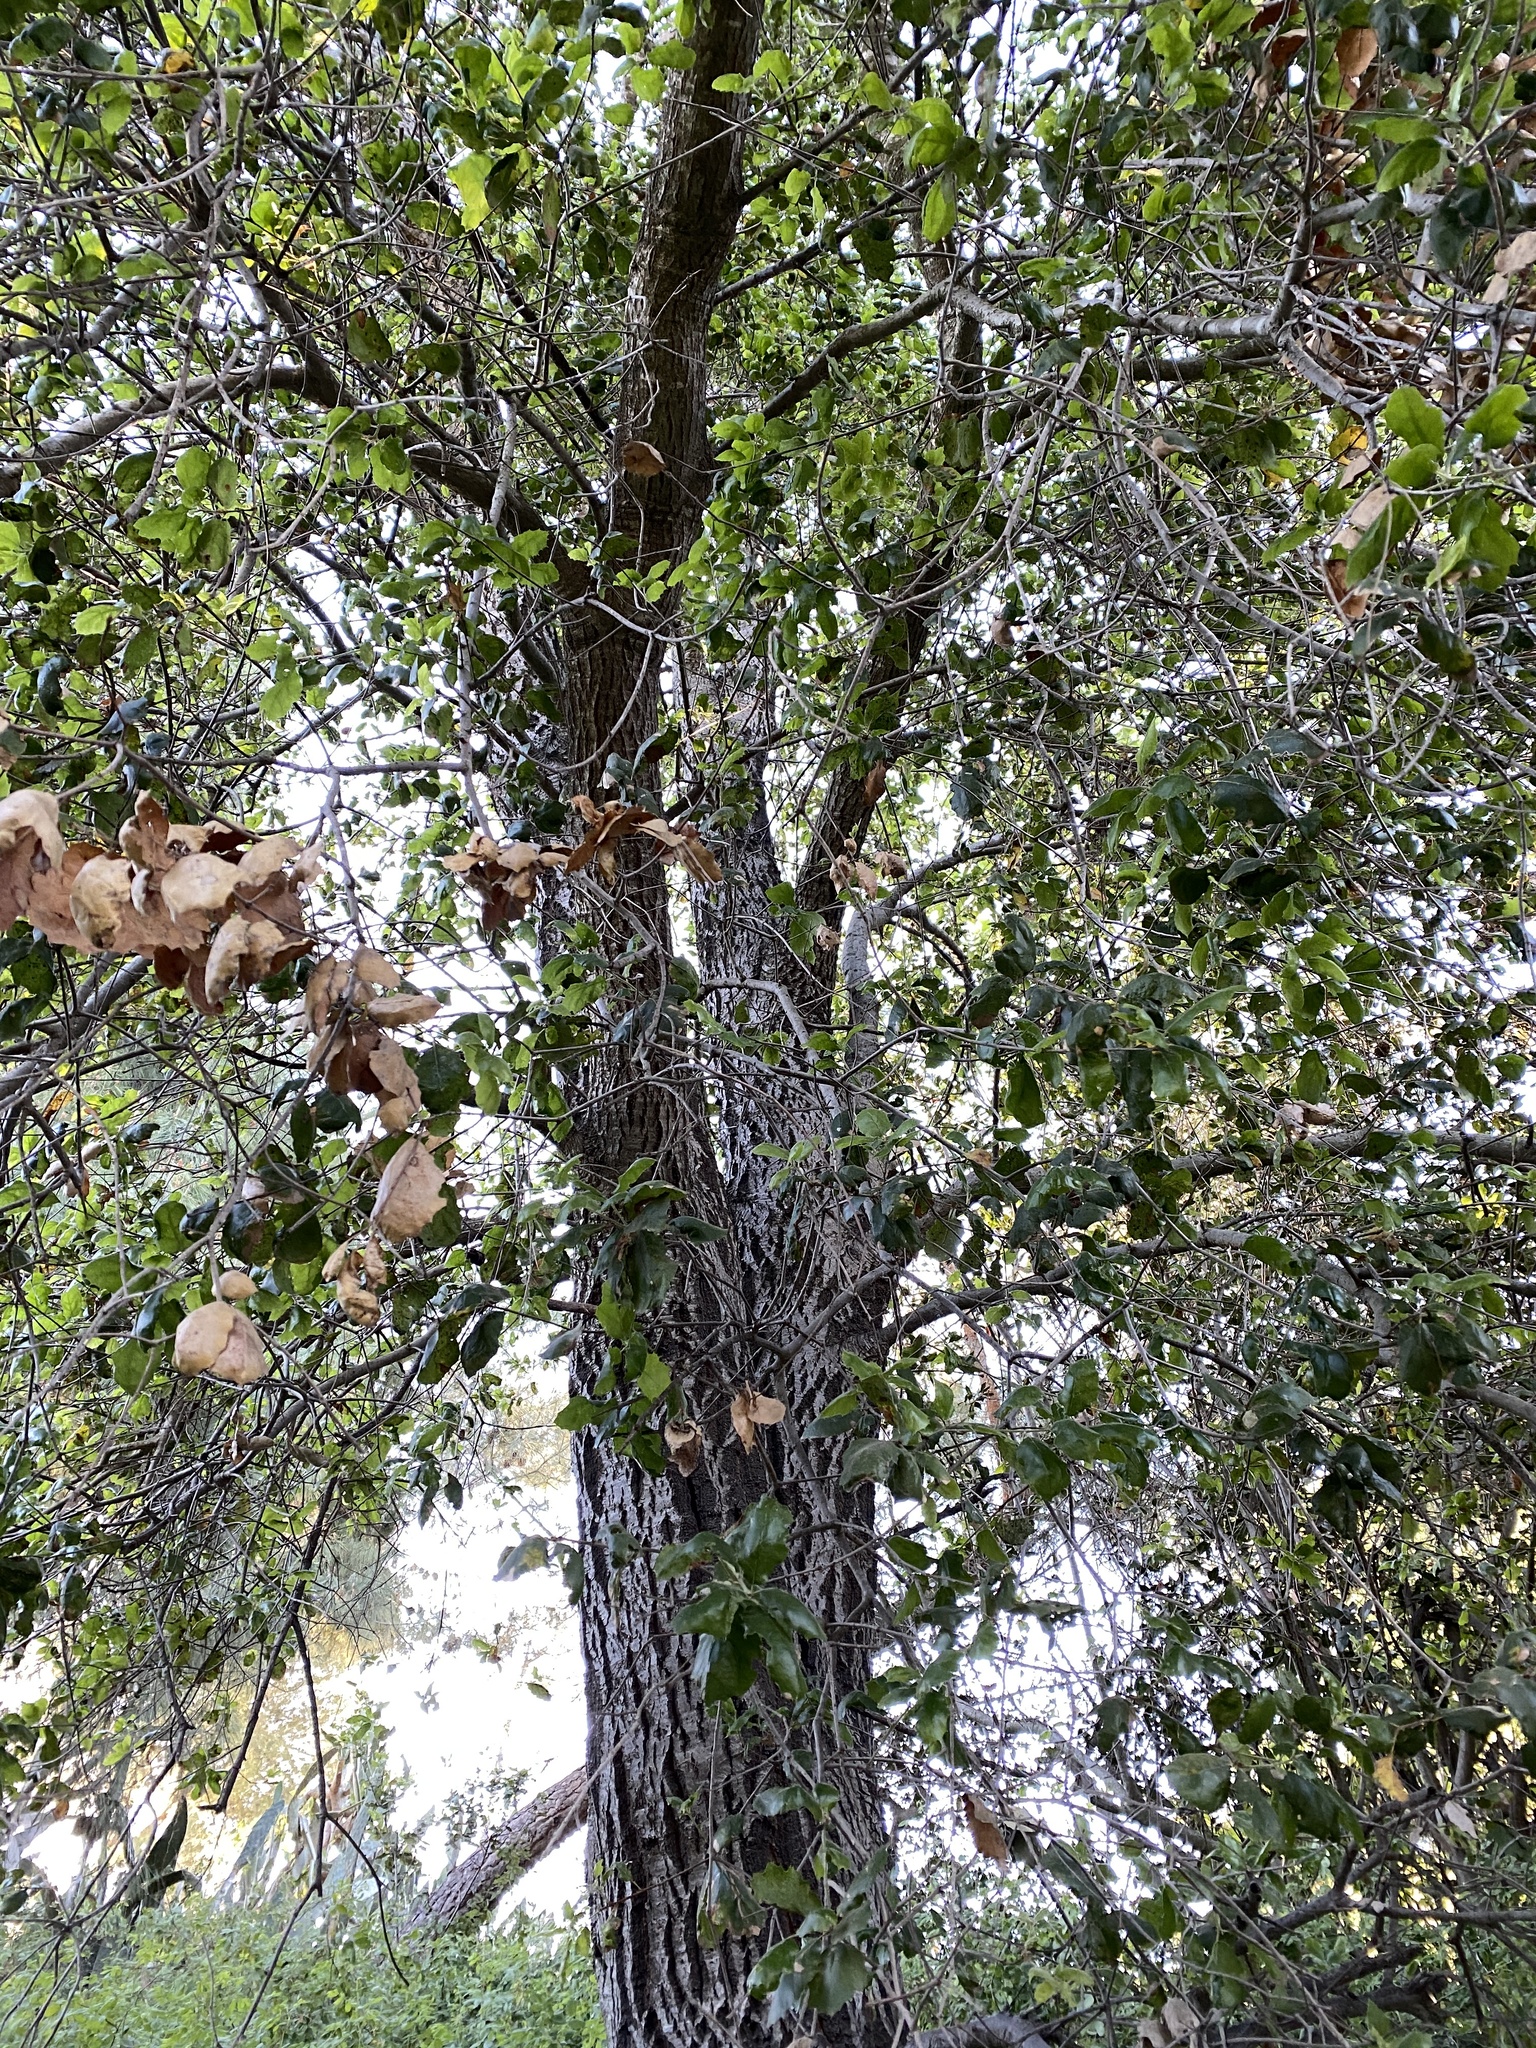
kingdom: Plantae
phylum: Tracheophyta
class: Magnoliopsida
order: Fagales
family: Fagaceae
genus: Quercus
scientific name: Quercus agrifolia
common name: California live oak
